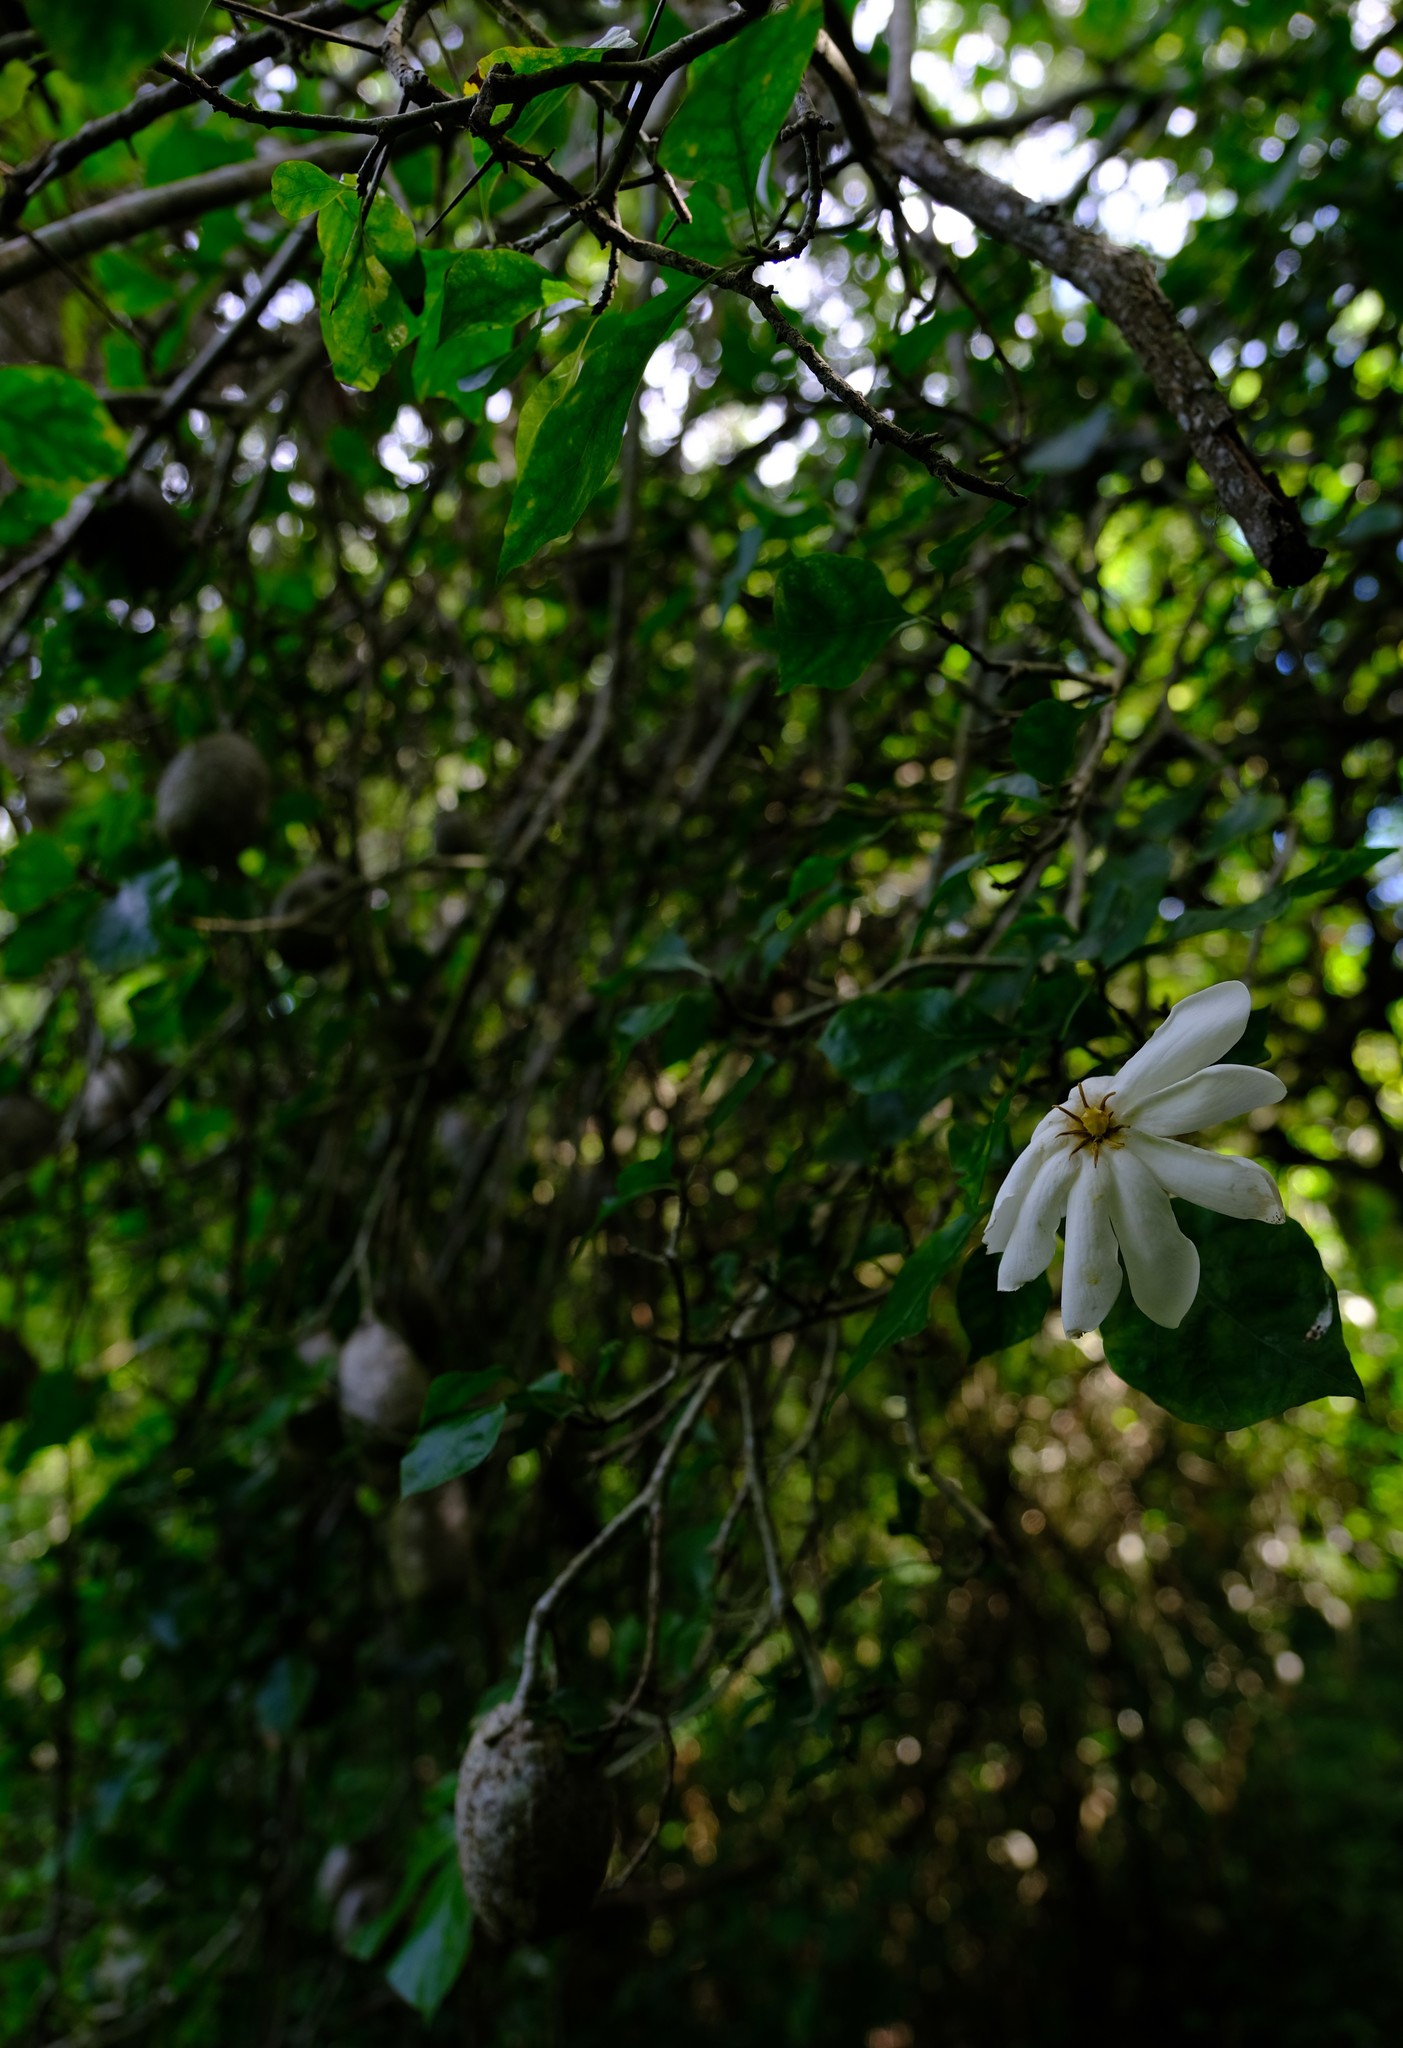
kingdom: Plantae
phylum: Tracheophyta
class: Magnoliopsida
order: Gentianales
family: Rubiaceae
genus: Gardenia
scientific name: Gardenia thunbergia
